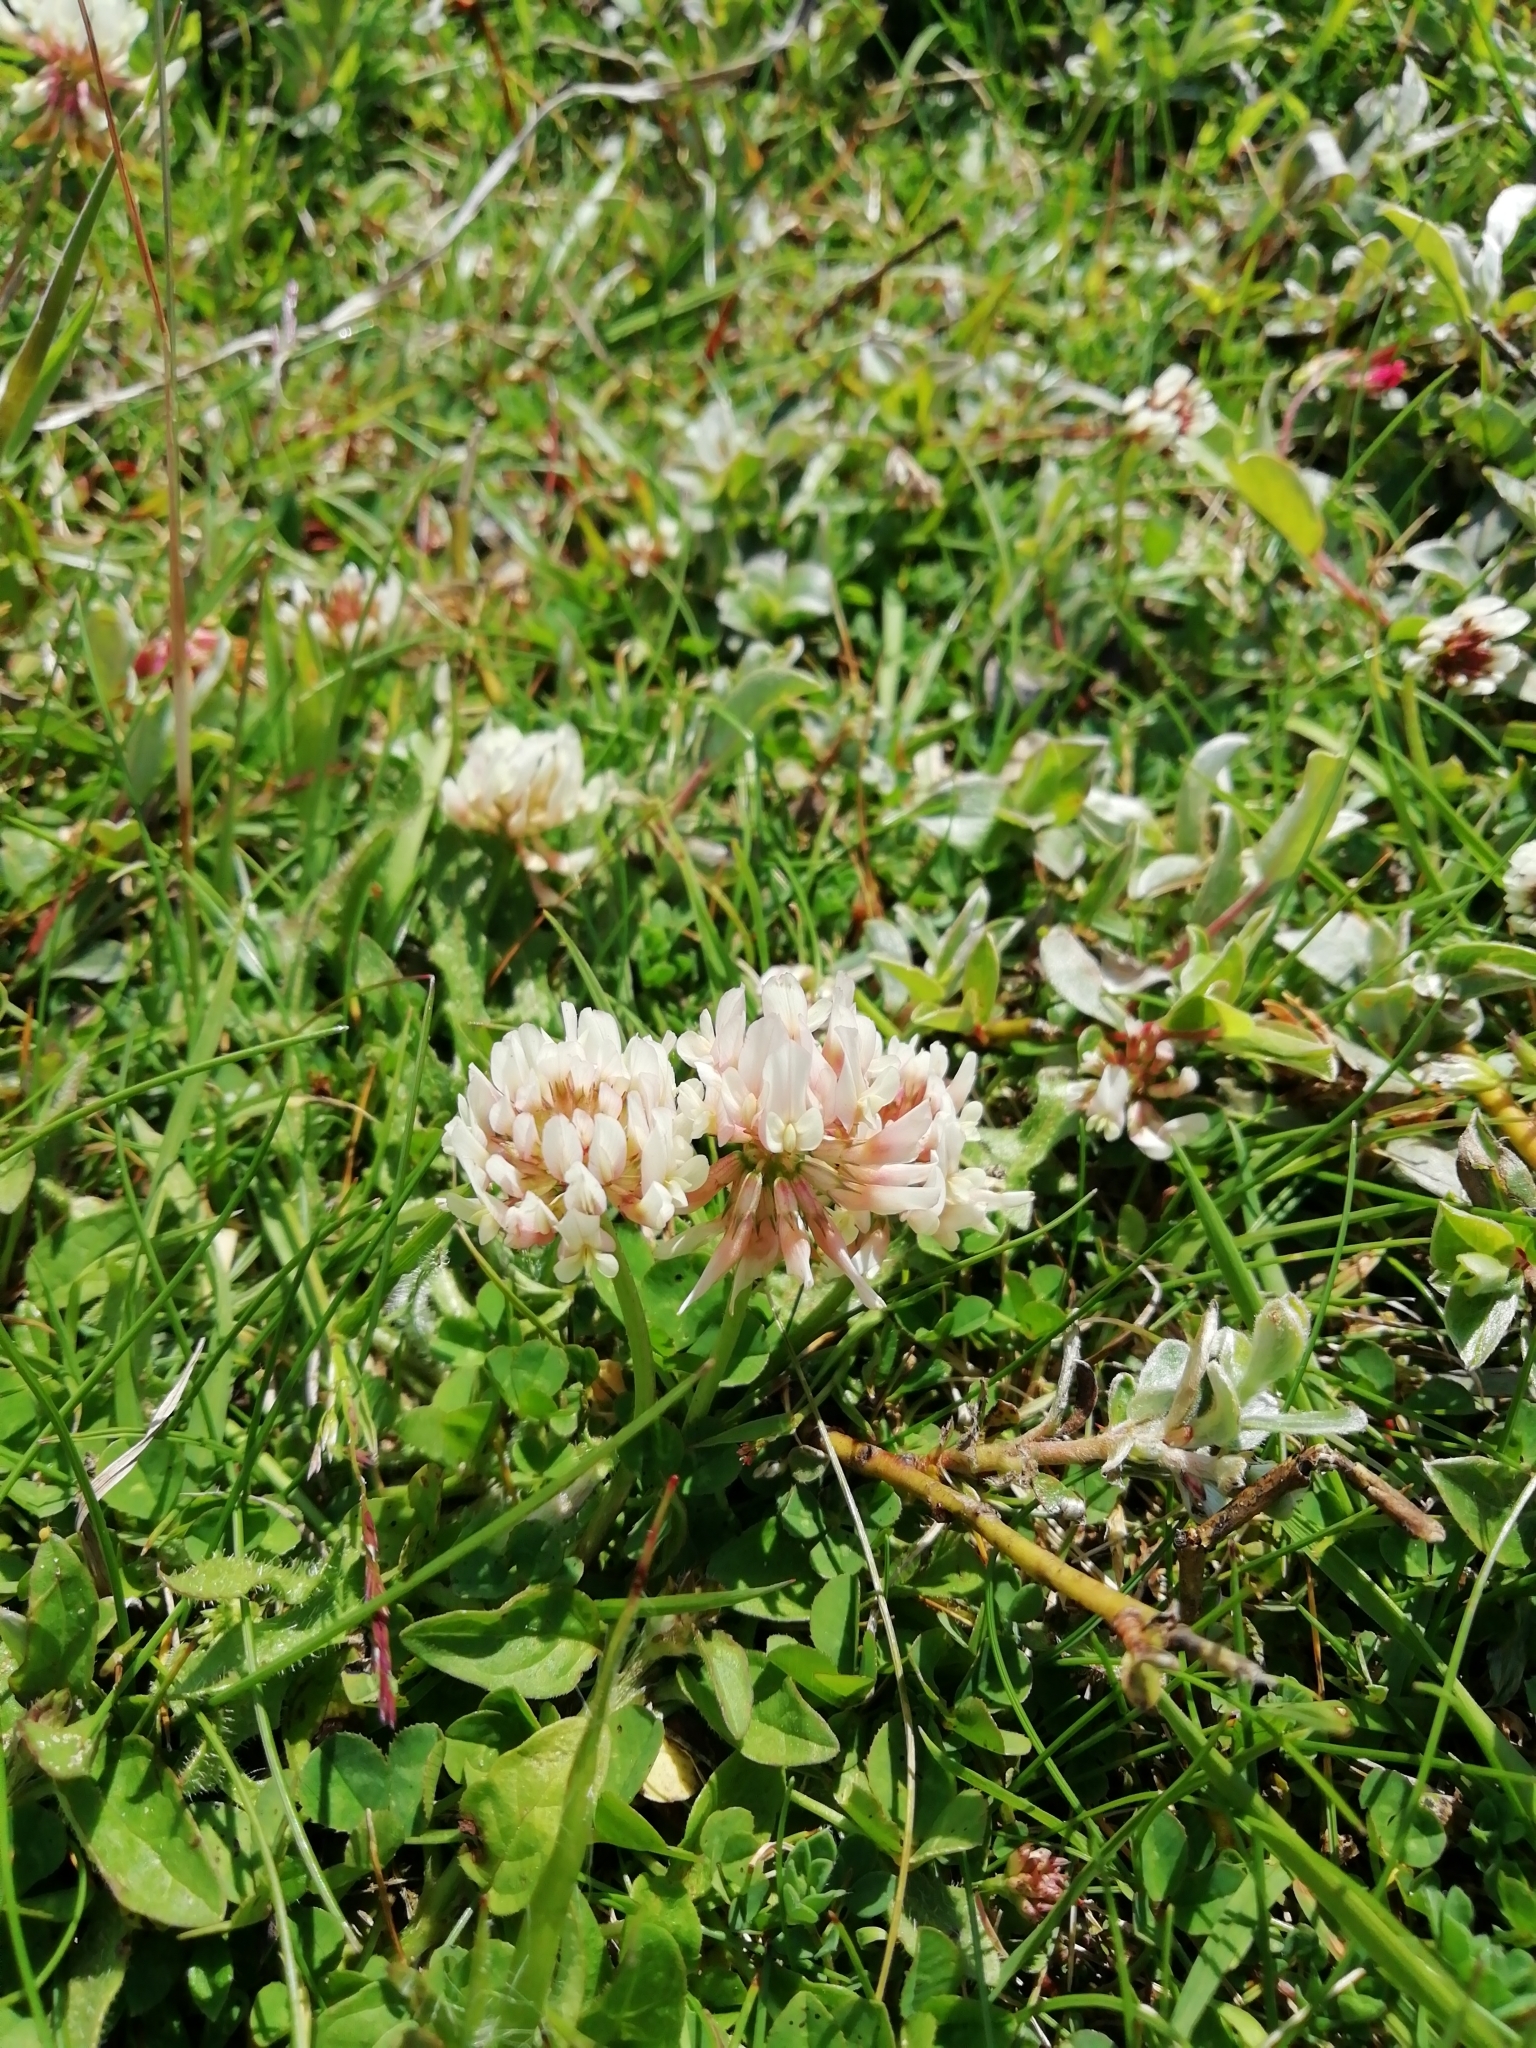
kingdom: Plantae
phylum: Tracheophyta
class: Magnoliopsida
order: Fabales
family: Fabaceae
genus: Trifolium
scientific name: Trifolium repens
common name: White clover
